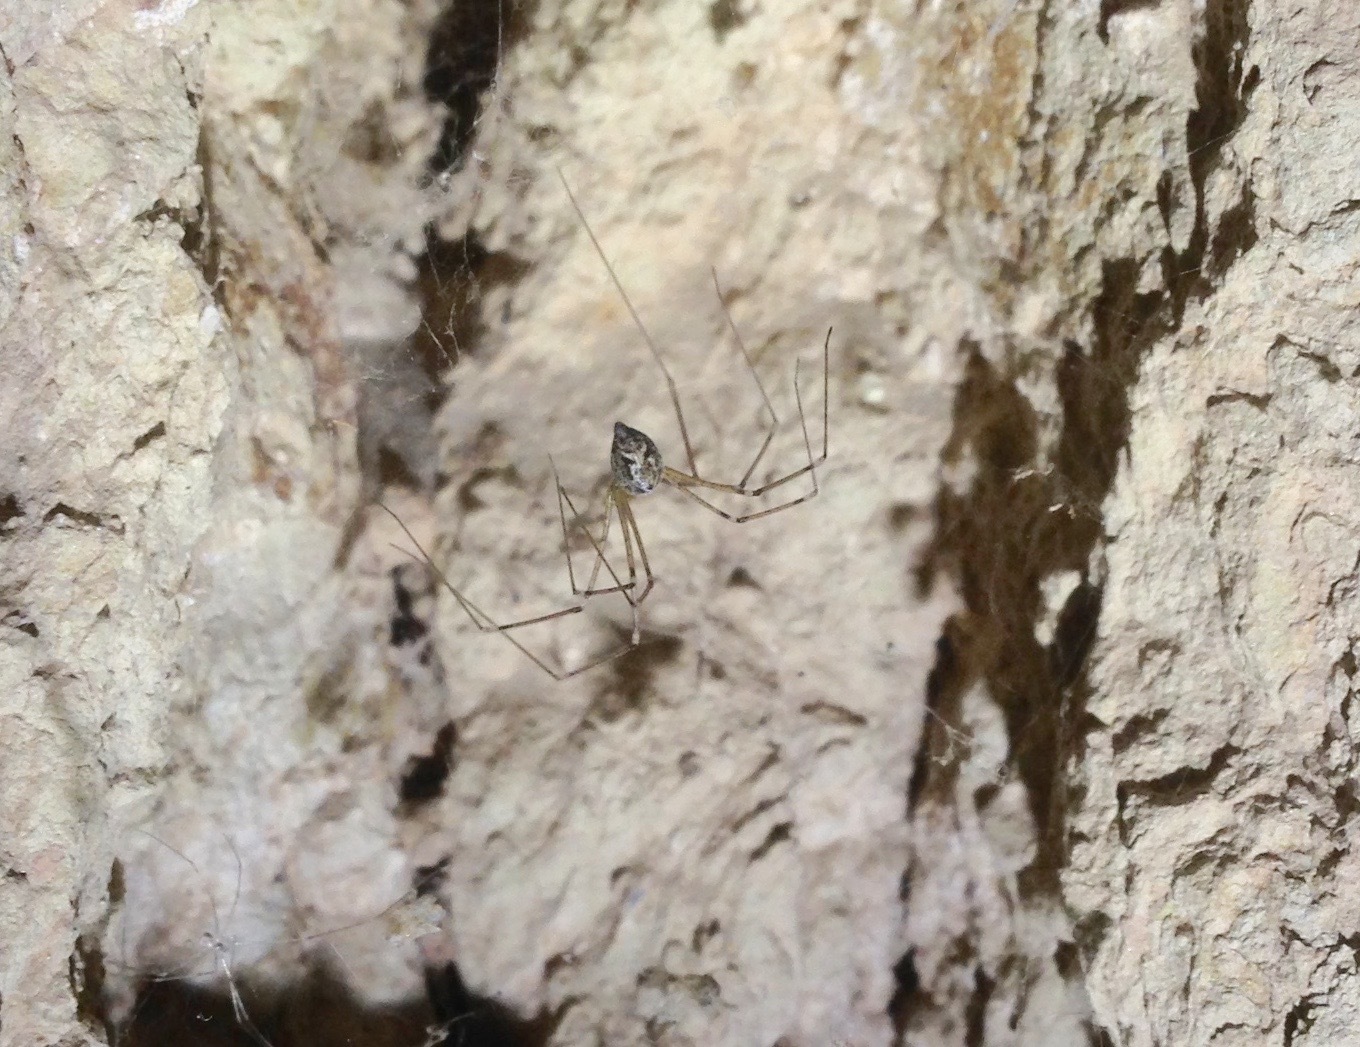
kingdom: Animalia
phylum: Arthropoda
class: Arachnida
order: Araneae
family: Pholcidae
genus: Crossopriza
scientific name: Crossopriza lyoni
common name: Cellar spiders
